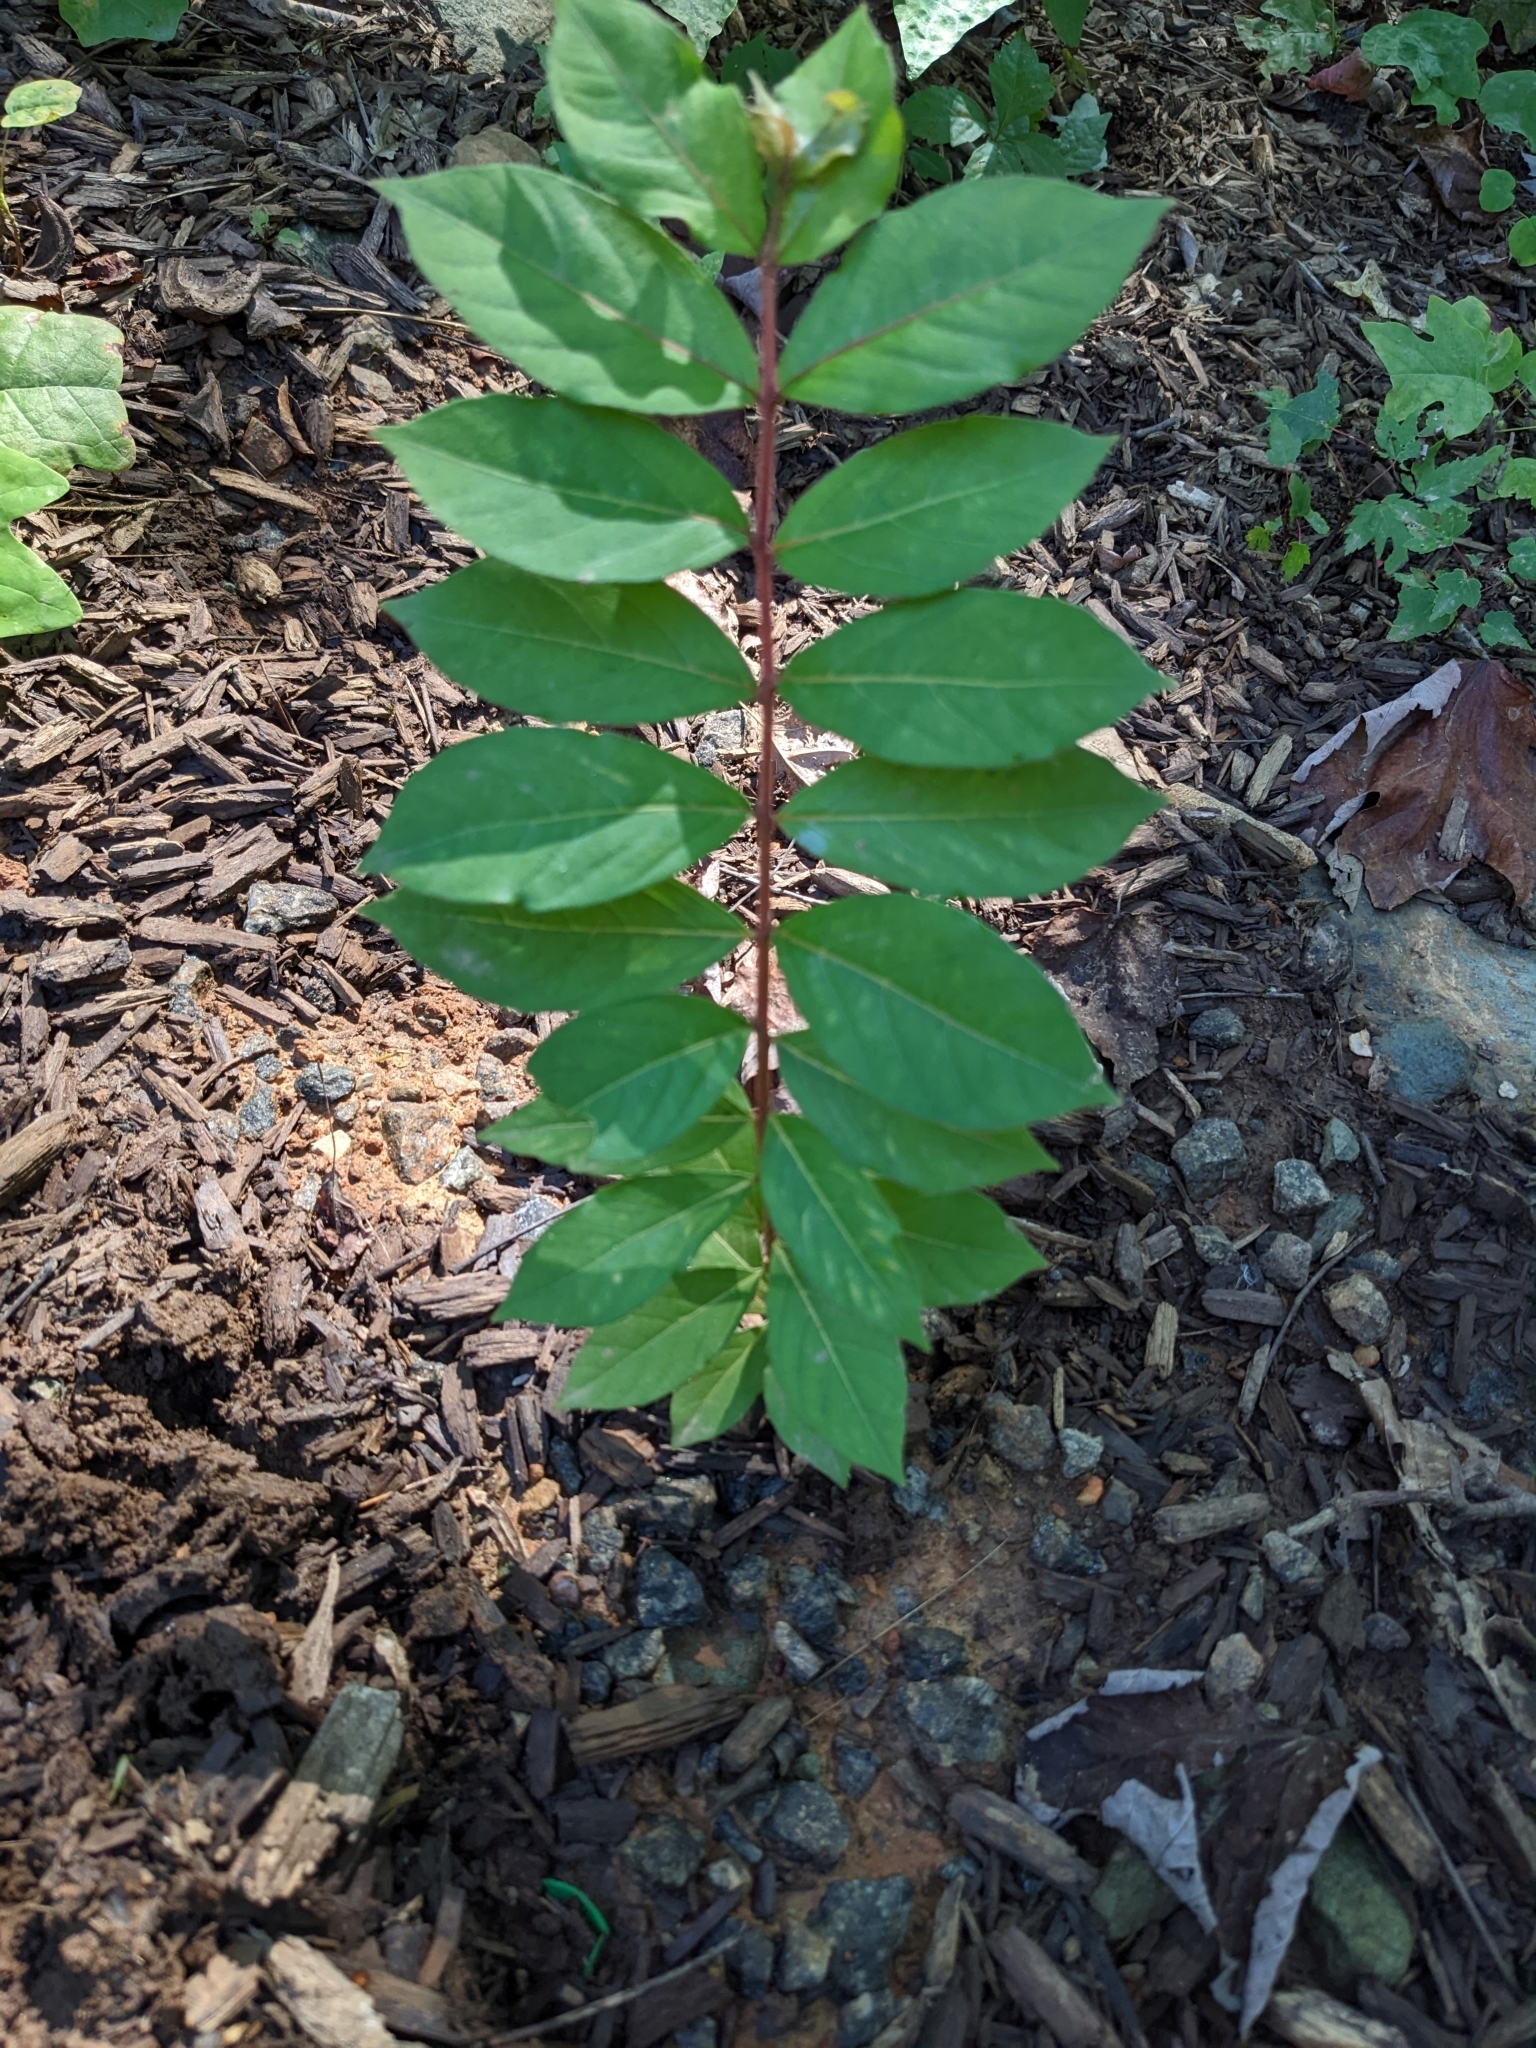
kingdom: Plantae
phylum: Tracheophyta
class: Magnoliopsida
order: Myrtales
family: Lythraceae
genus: Lagerstroemia
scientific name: Lagerstroemia indica
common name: Crape-myrtle
